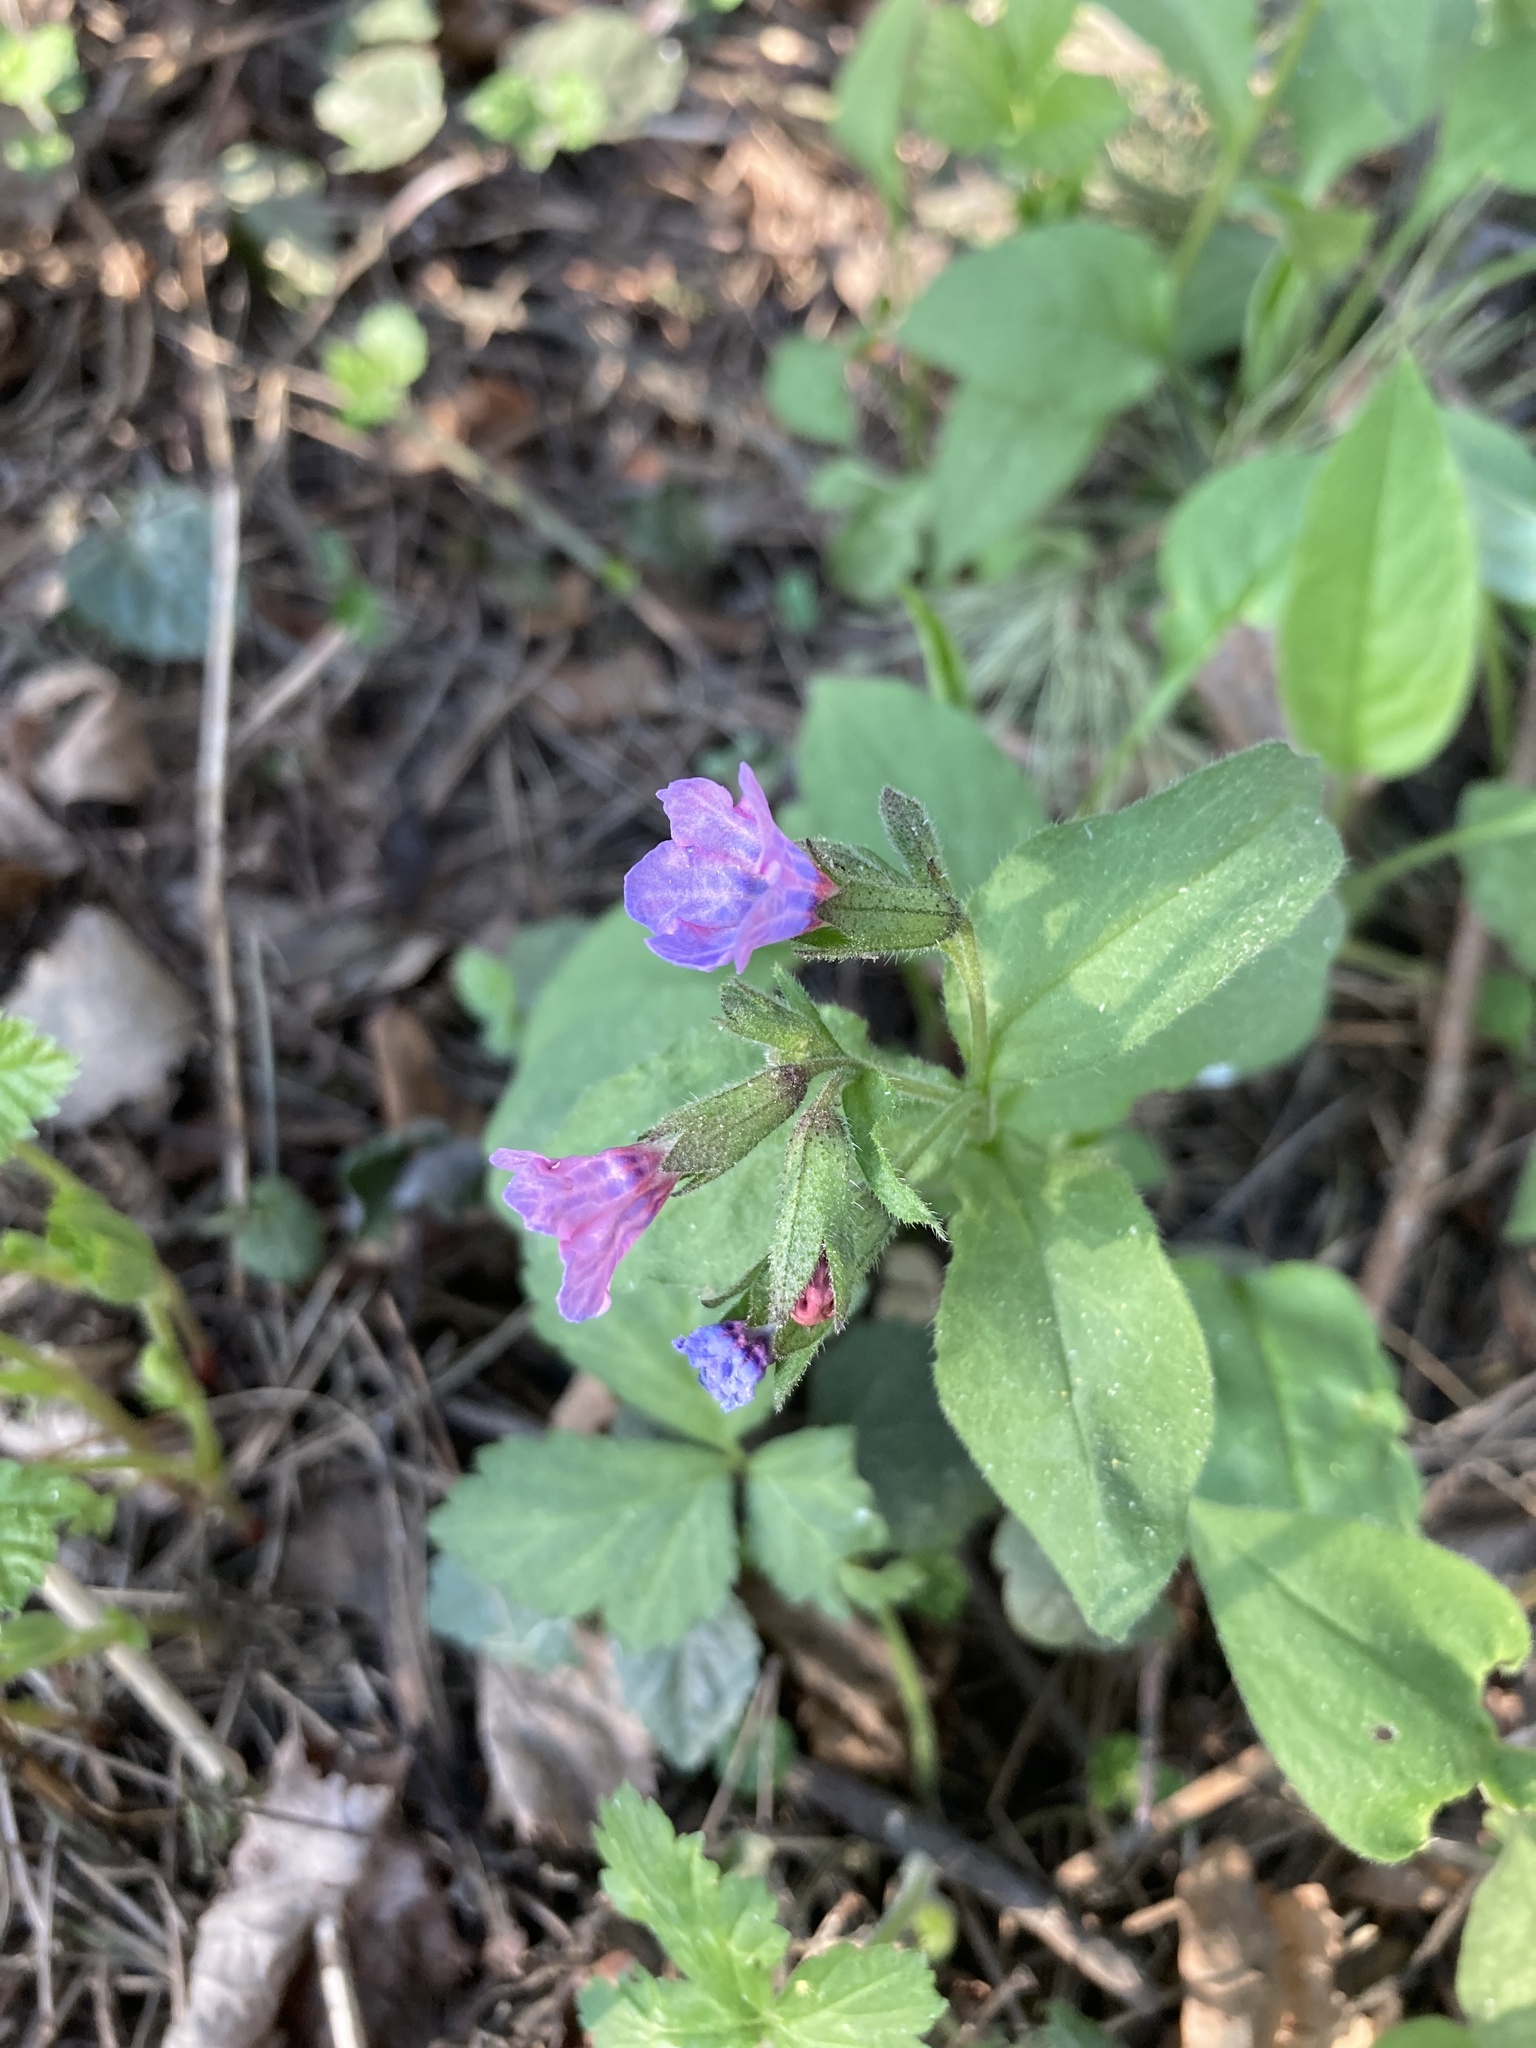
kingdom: Plantae
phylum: Tracheophyta
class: Magnoliopsida
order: Boraginales
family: Boraginaceae
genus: Pulmonaria
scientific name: Pulmonaria obscura
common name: Suffolk lungwort
